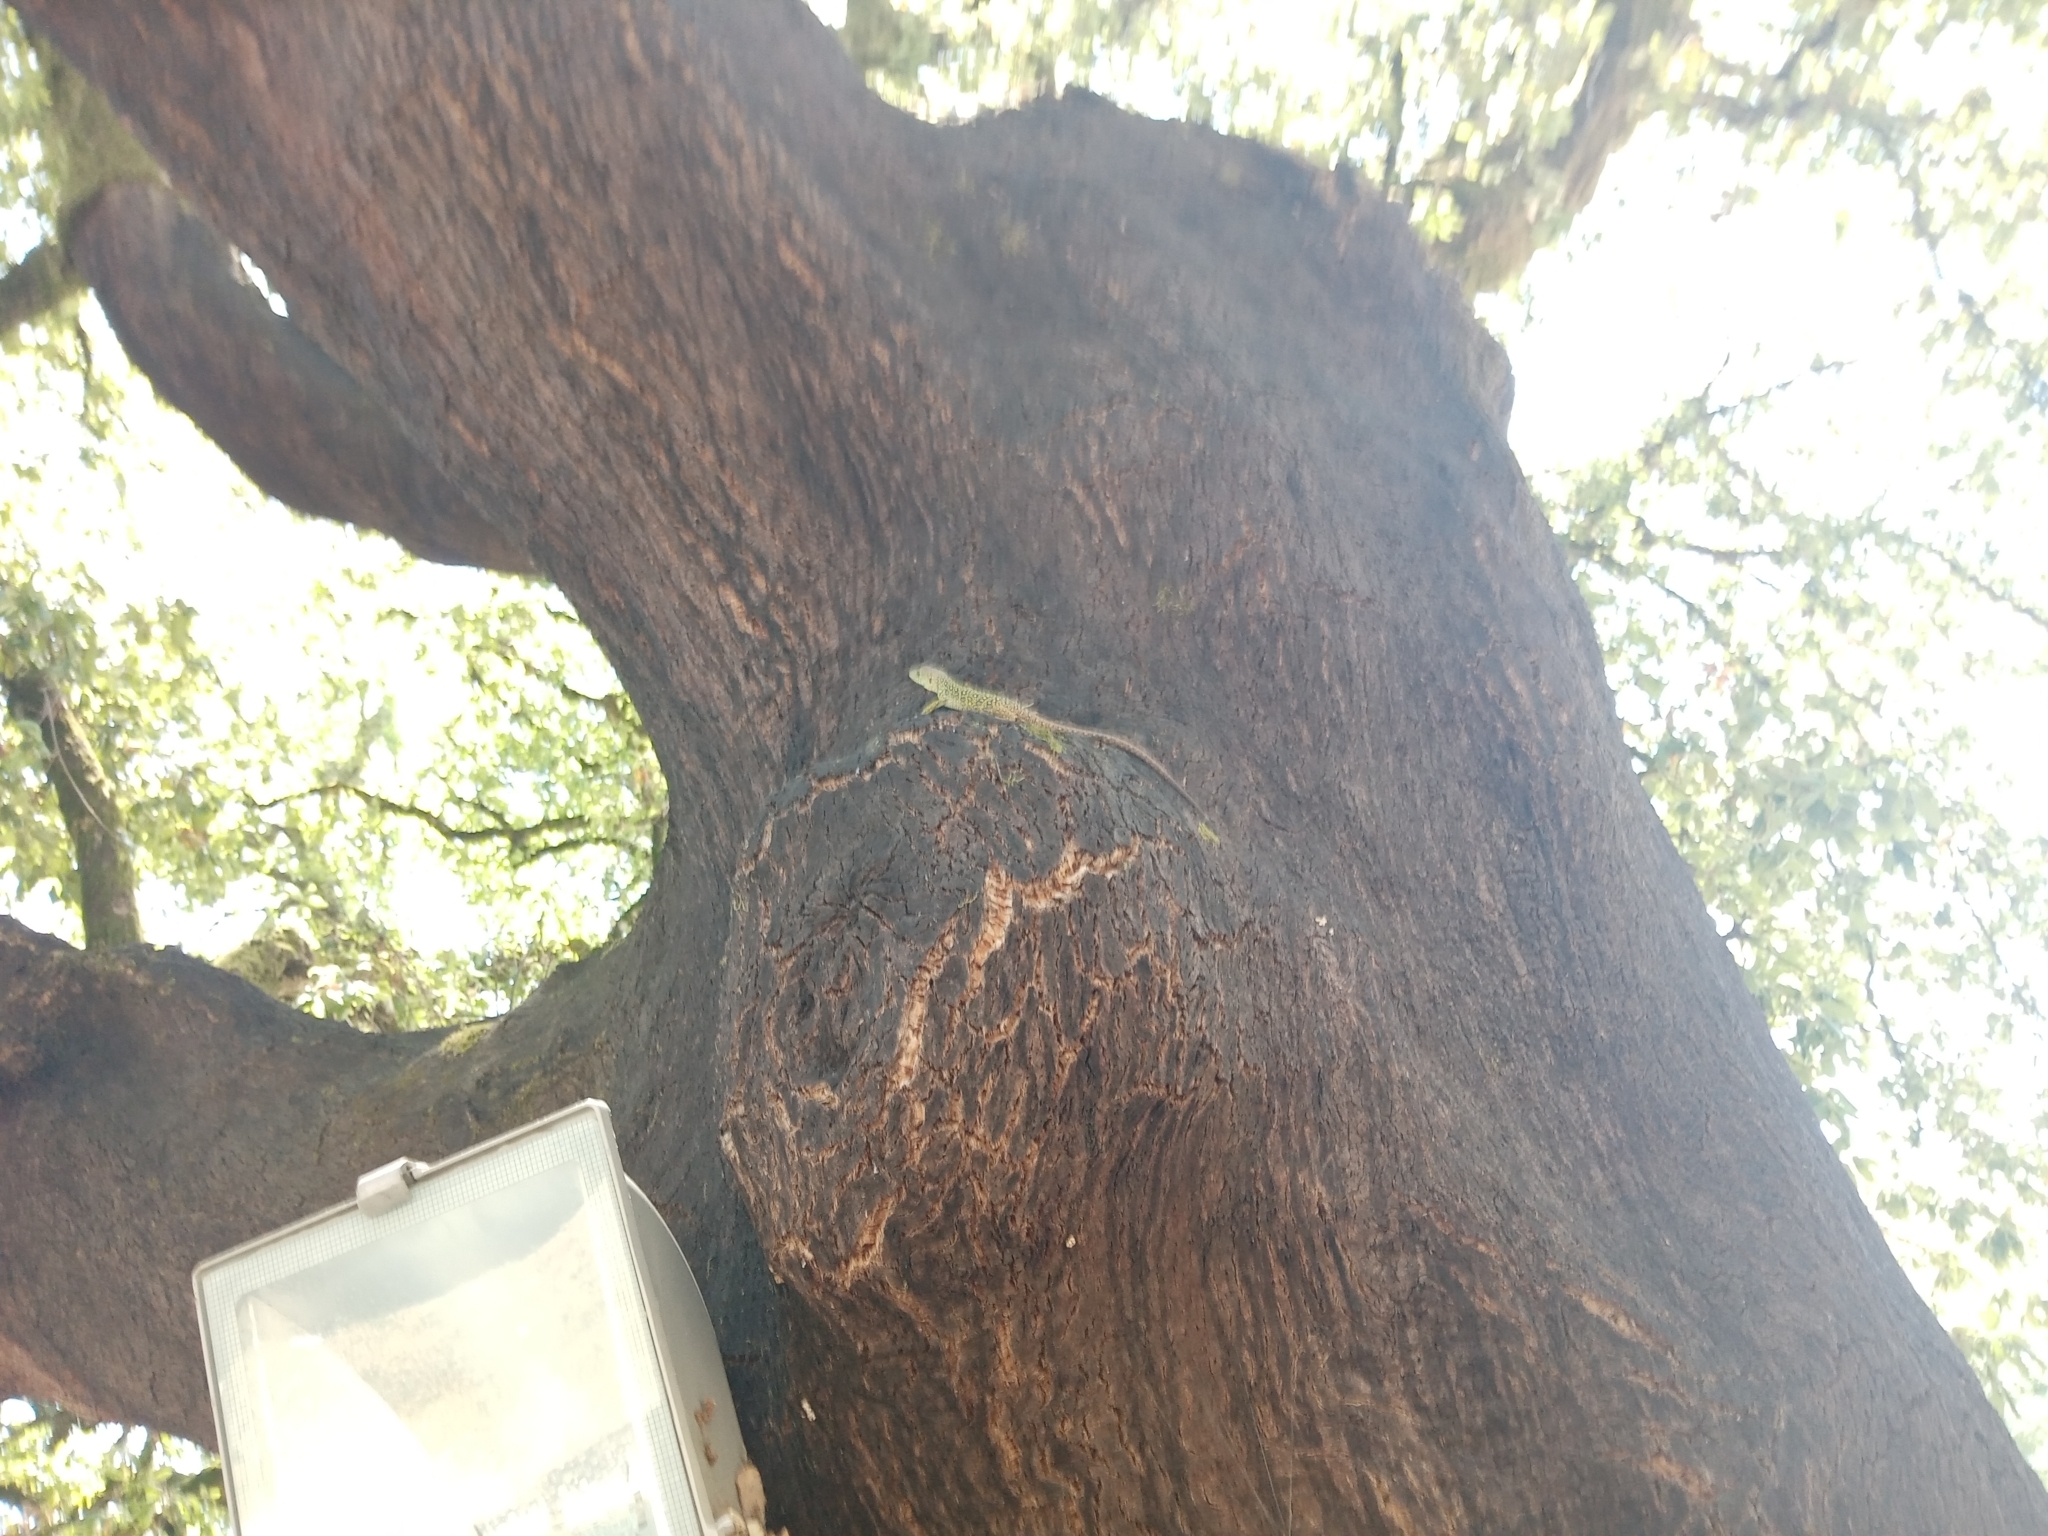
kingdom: Animalia
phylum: Chordata
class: Squamata
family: Lacertidae
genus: Timon
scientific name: Timon lepidus
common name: Ocellated lizard
